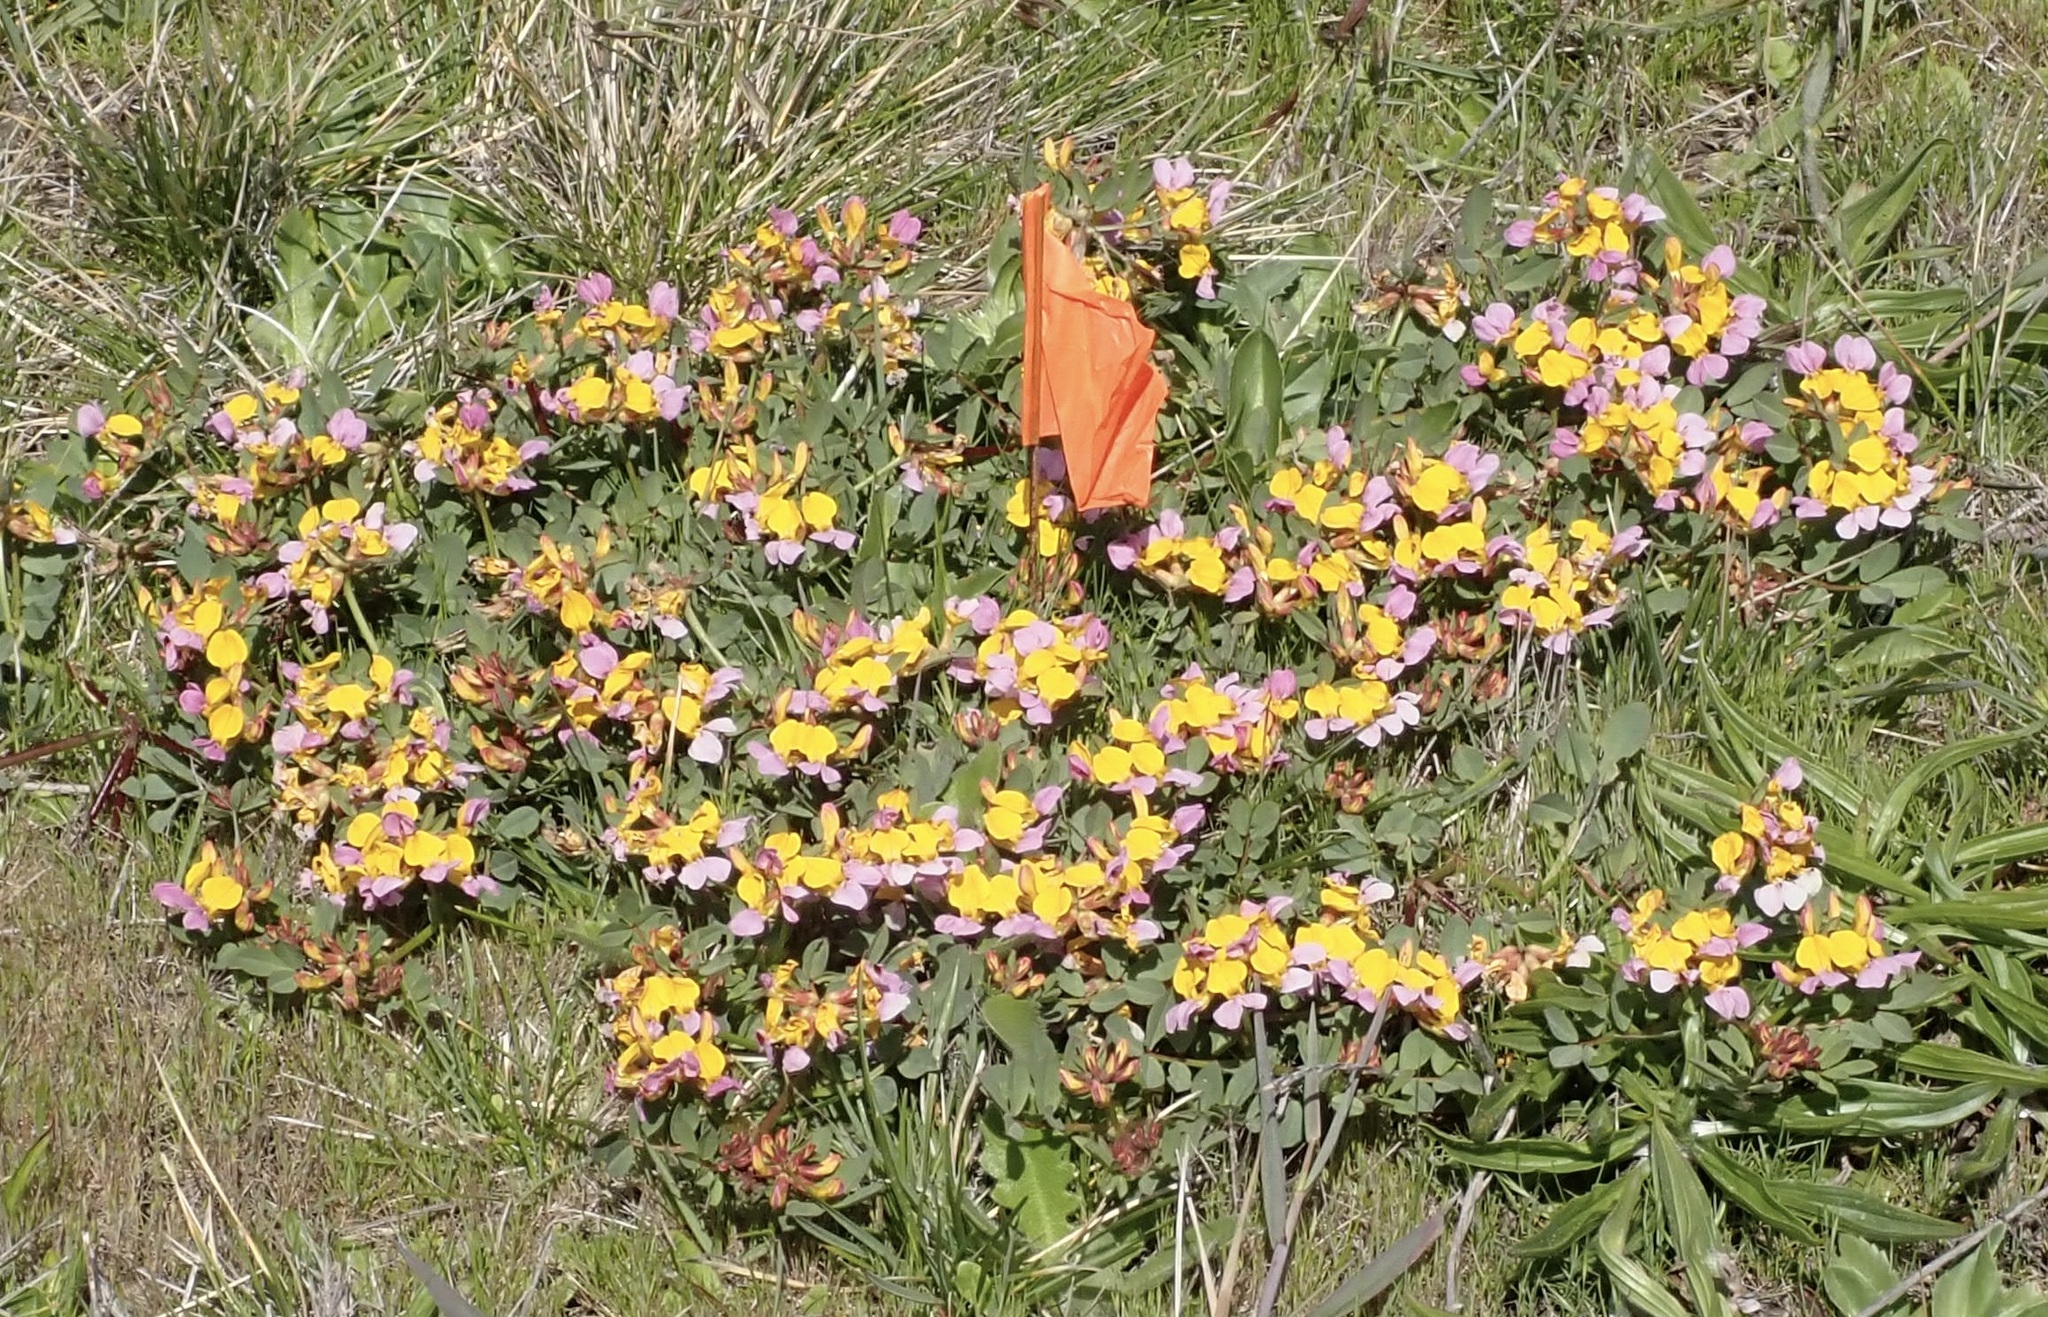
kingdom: Plantae
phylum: Tracheophyta
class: Magnoliopsida
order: Fabales
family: Fabaceae
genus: Hosackia
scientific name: Hosackia gracilis
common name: Seaside bird's-foot lotus
